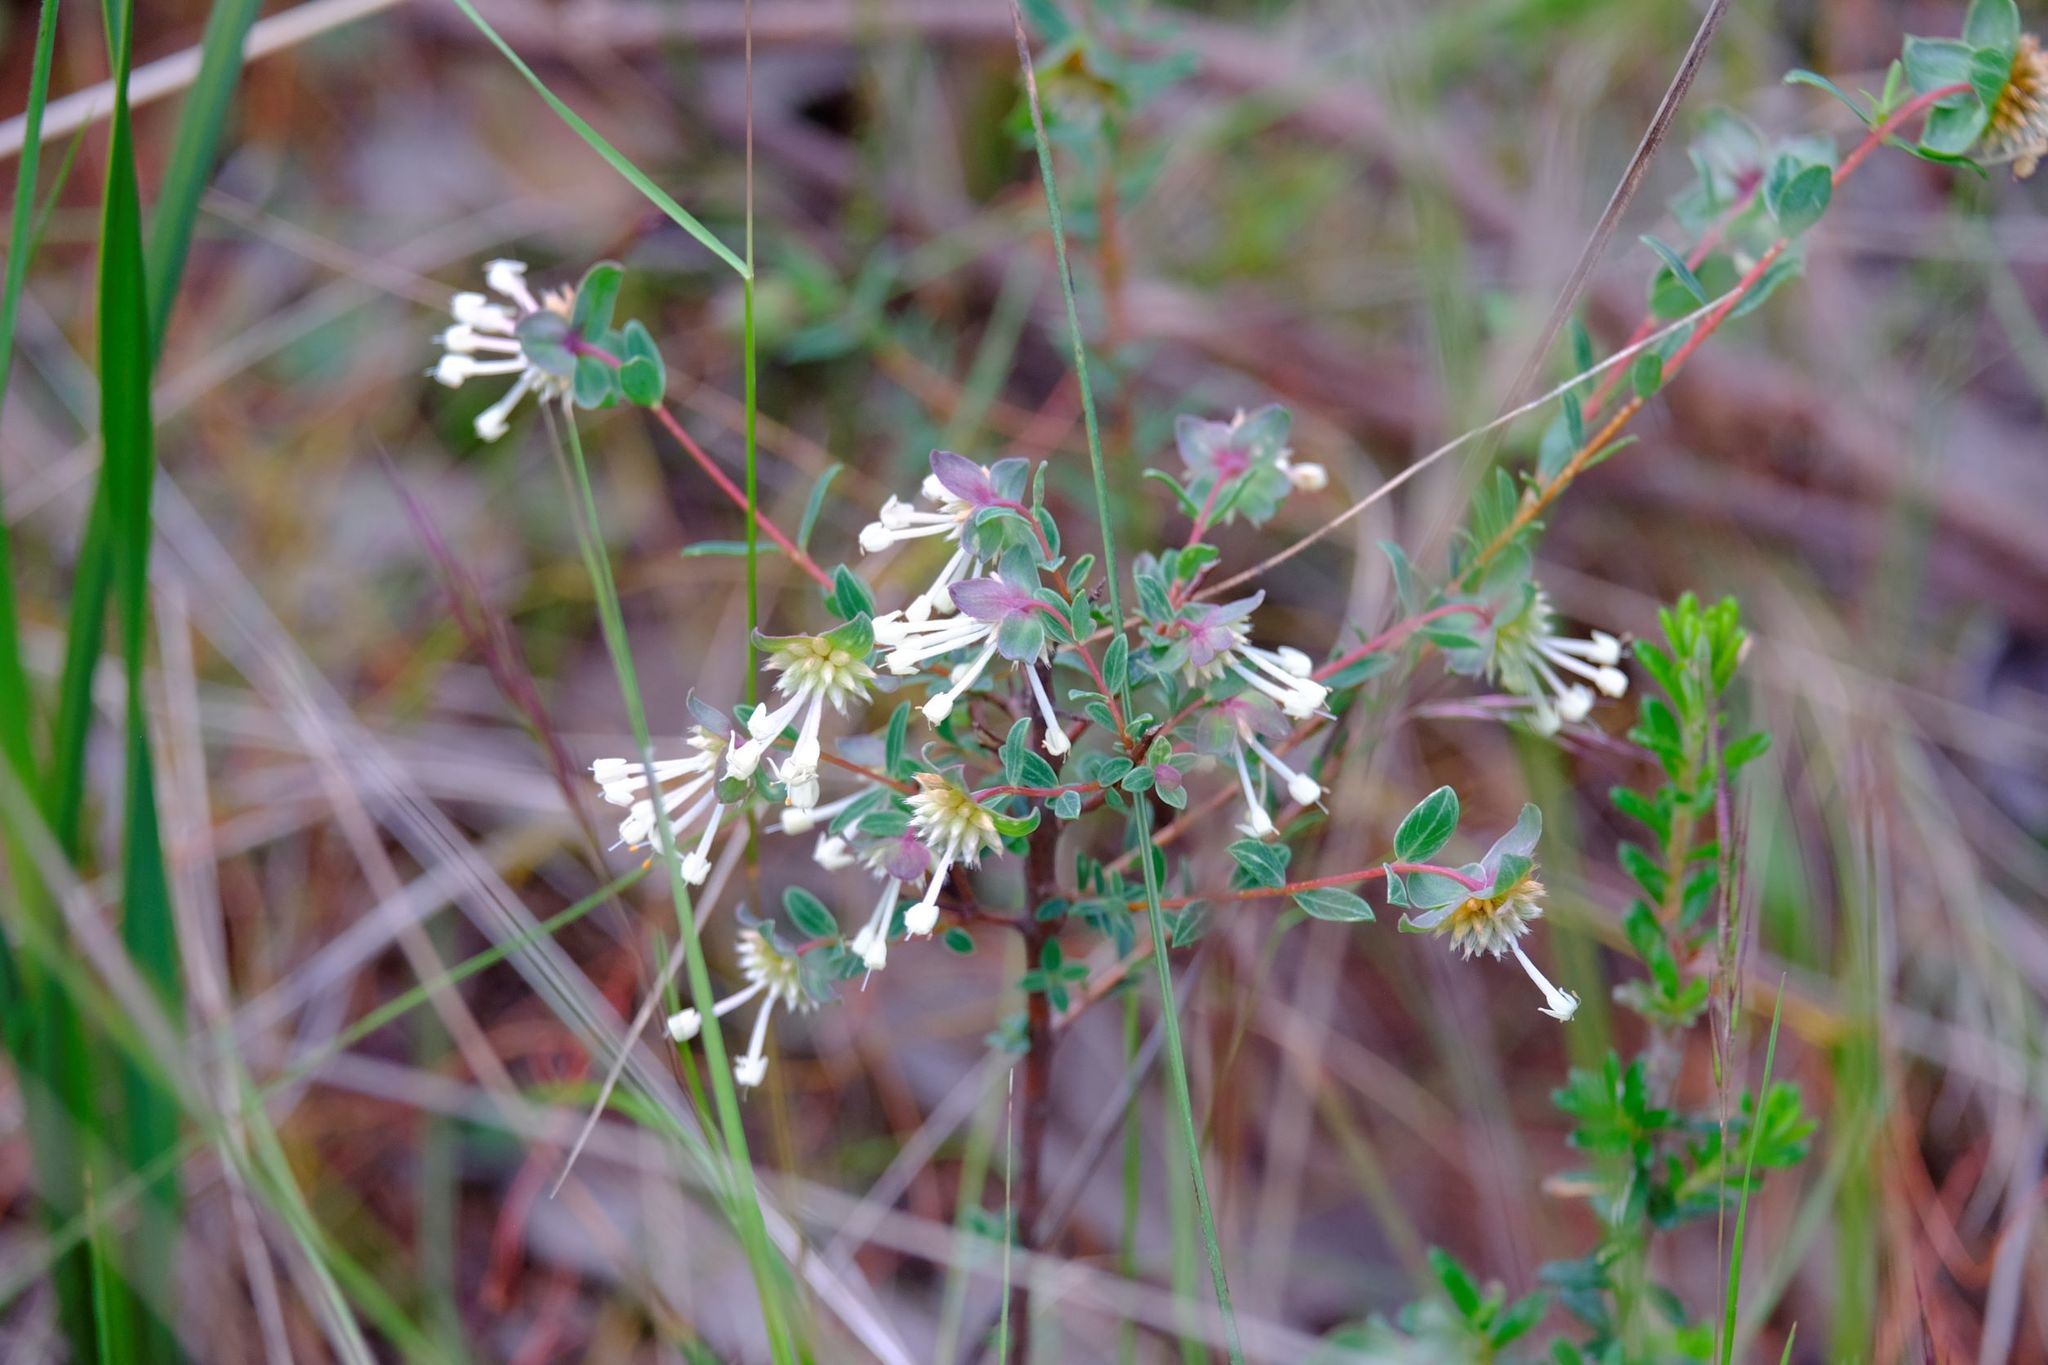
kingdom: Plantae
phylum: Tracheophyta
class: Magnoliopsida
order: Malvales
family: Thymelaeaceae
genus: Pimelea
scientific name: Pimelea linifolia
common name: Queen-of-the-bush
